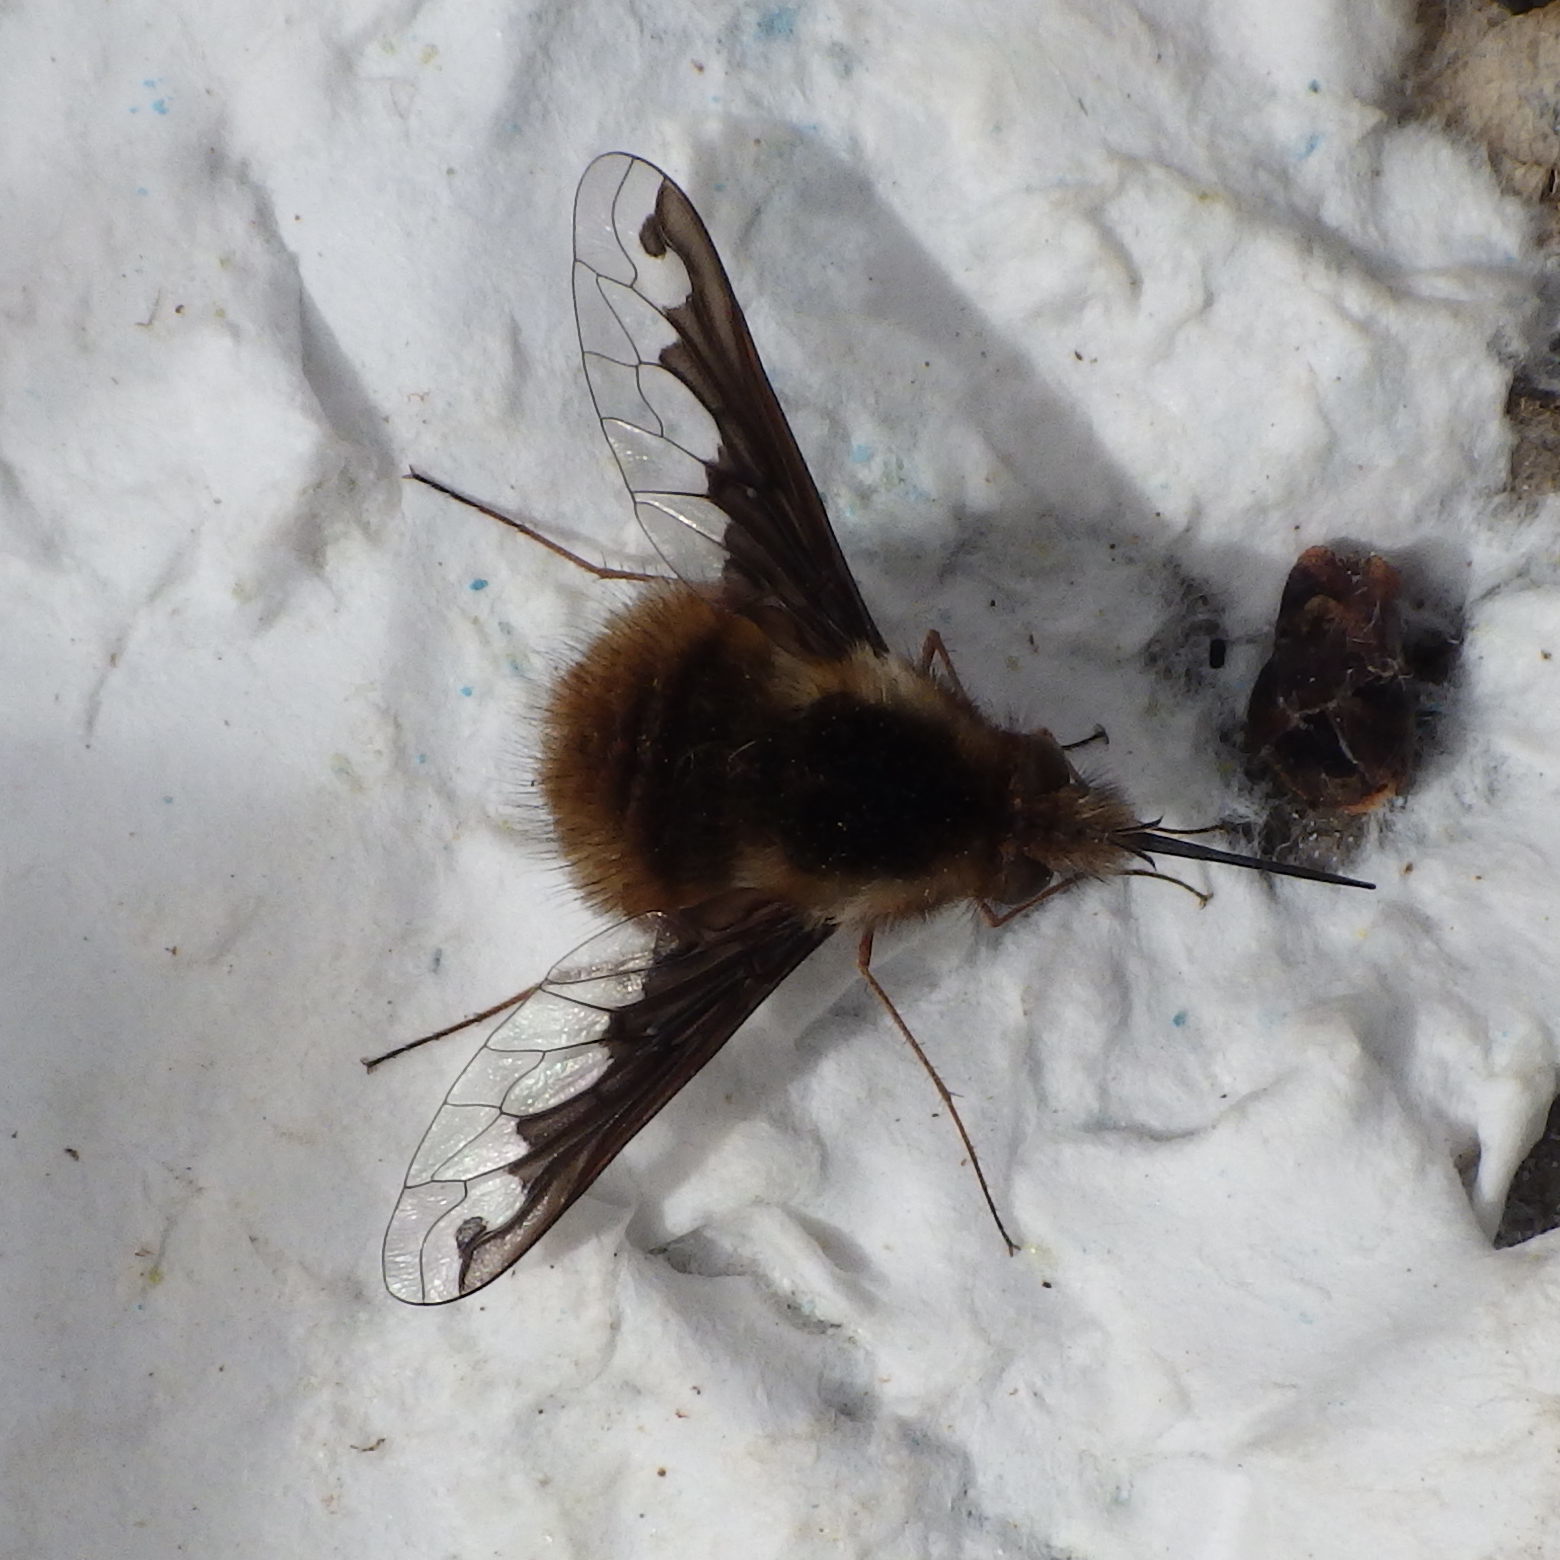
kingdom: Animalia
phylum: Arthropoda
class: Insecta
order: Diptera
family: Bombyliidae
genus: Bombylius
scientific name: Bombylius major
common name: Bee fly
